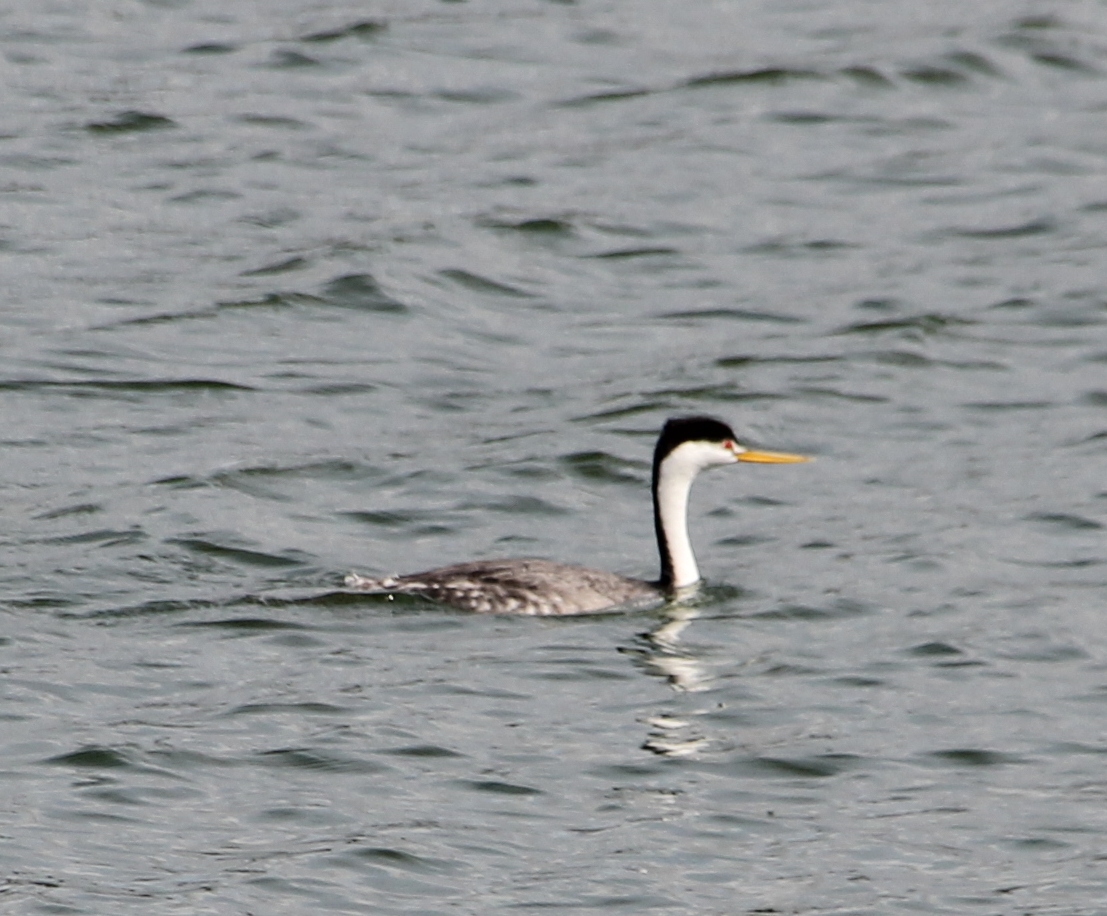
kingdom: Animalia
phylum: Chordata
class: Aves
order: Podicipediformes
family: Podicipedidae
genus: Aechmophorus
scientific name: Aechmophorus clarkii
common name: Clark's grebe
